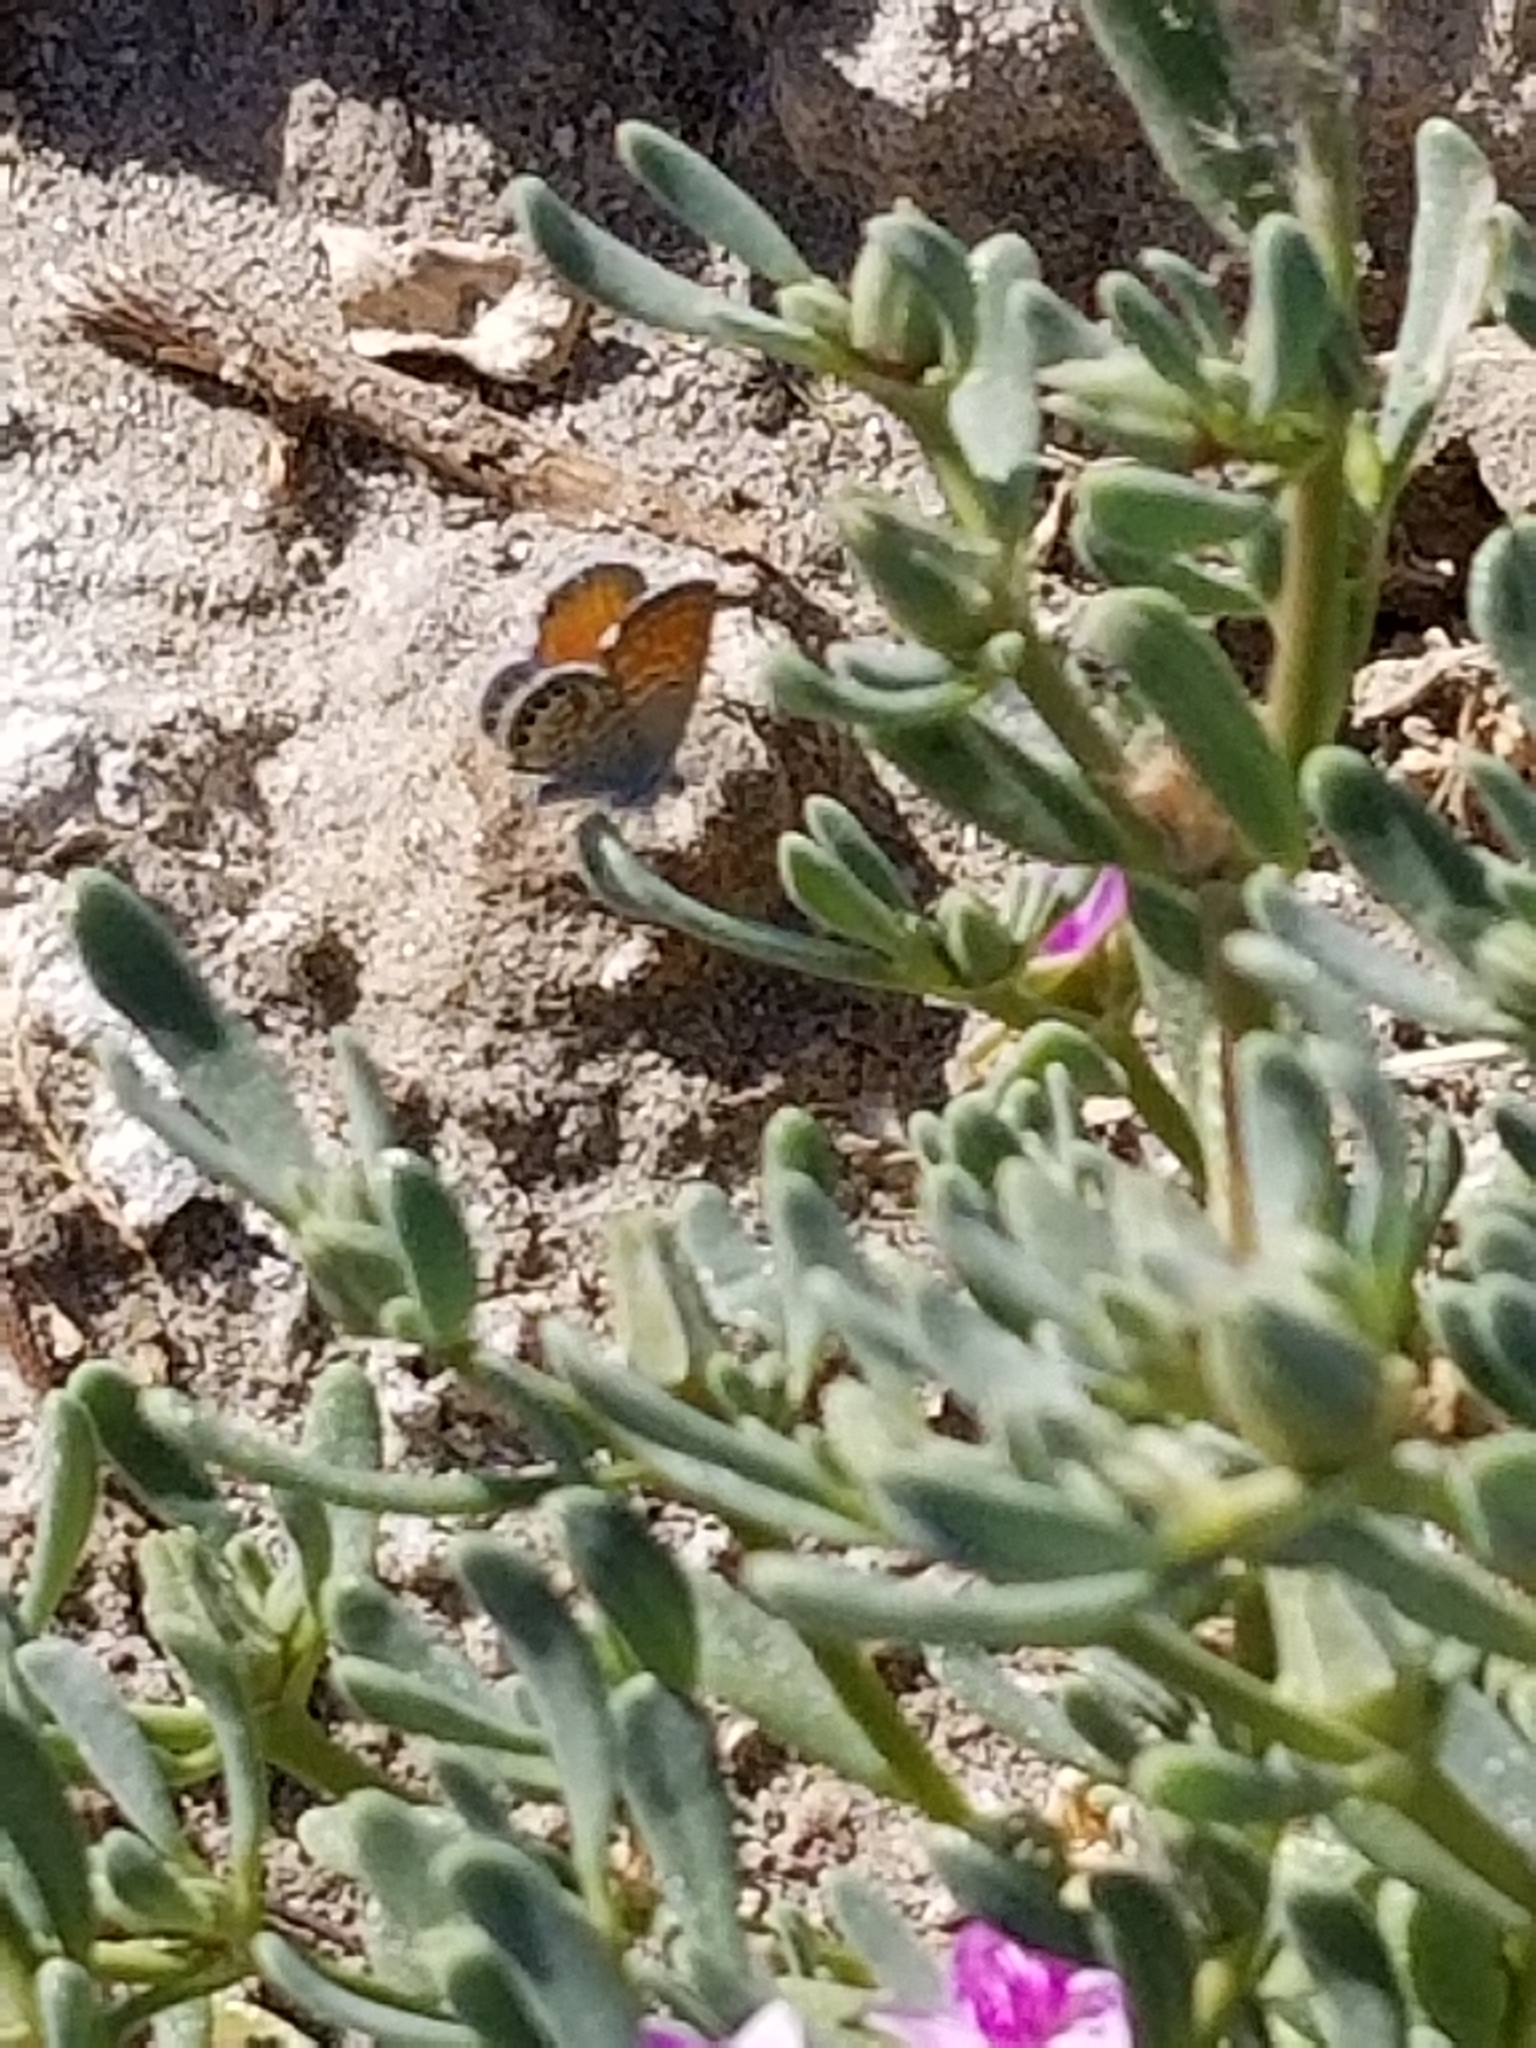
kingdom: Animalia
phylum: Arthropoda
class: Insecta
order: Lepidoptera
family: Lycaenidae
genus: Brephidium
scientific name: Brephidium exilis
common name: Pygmy blue
